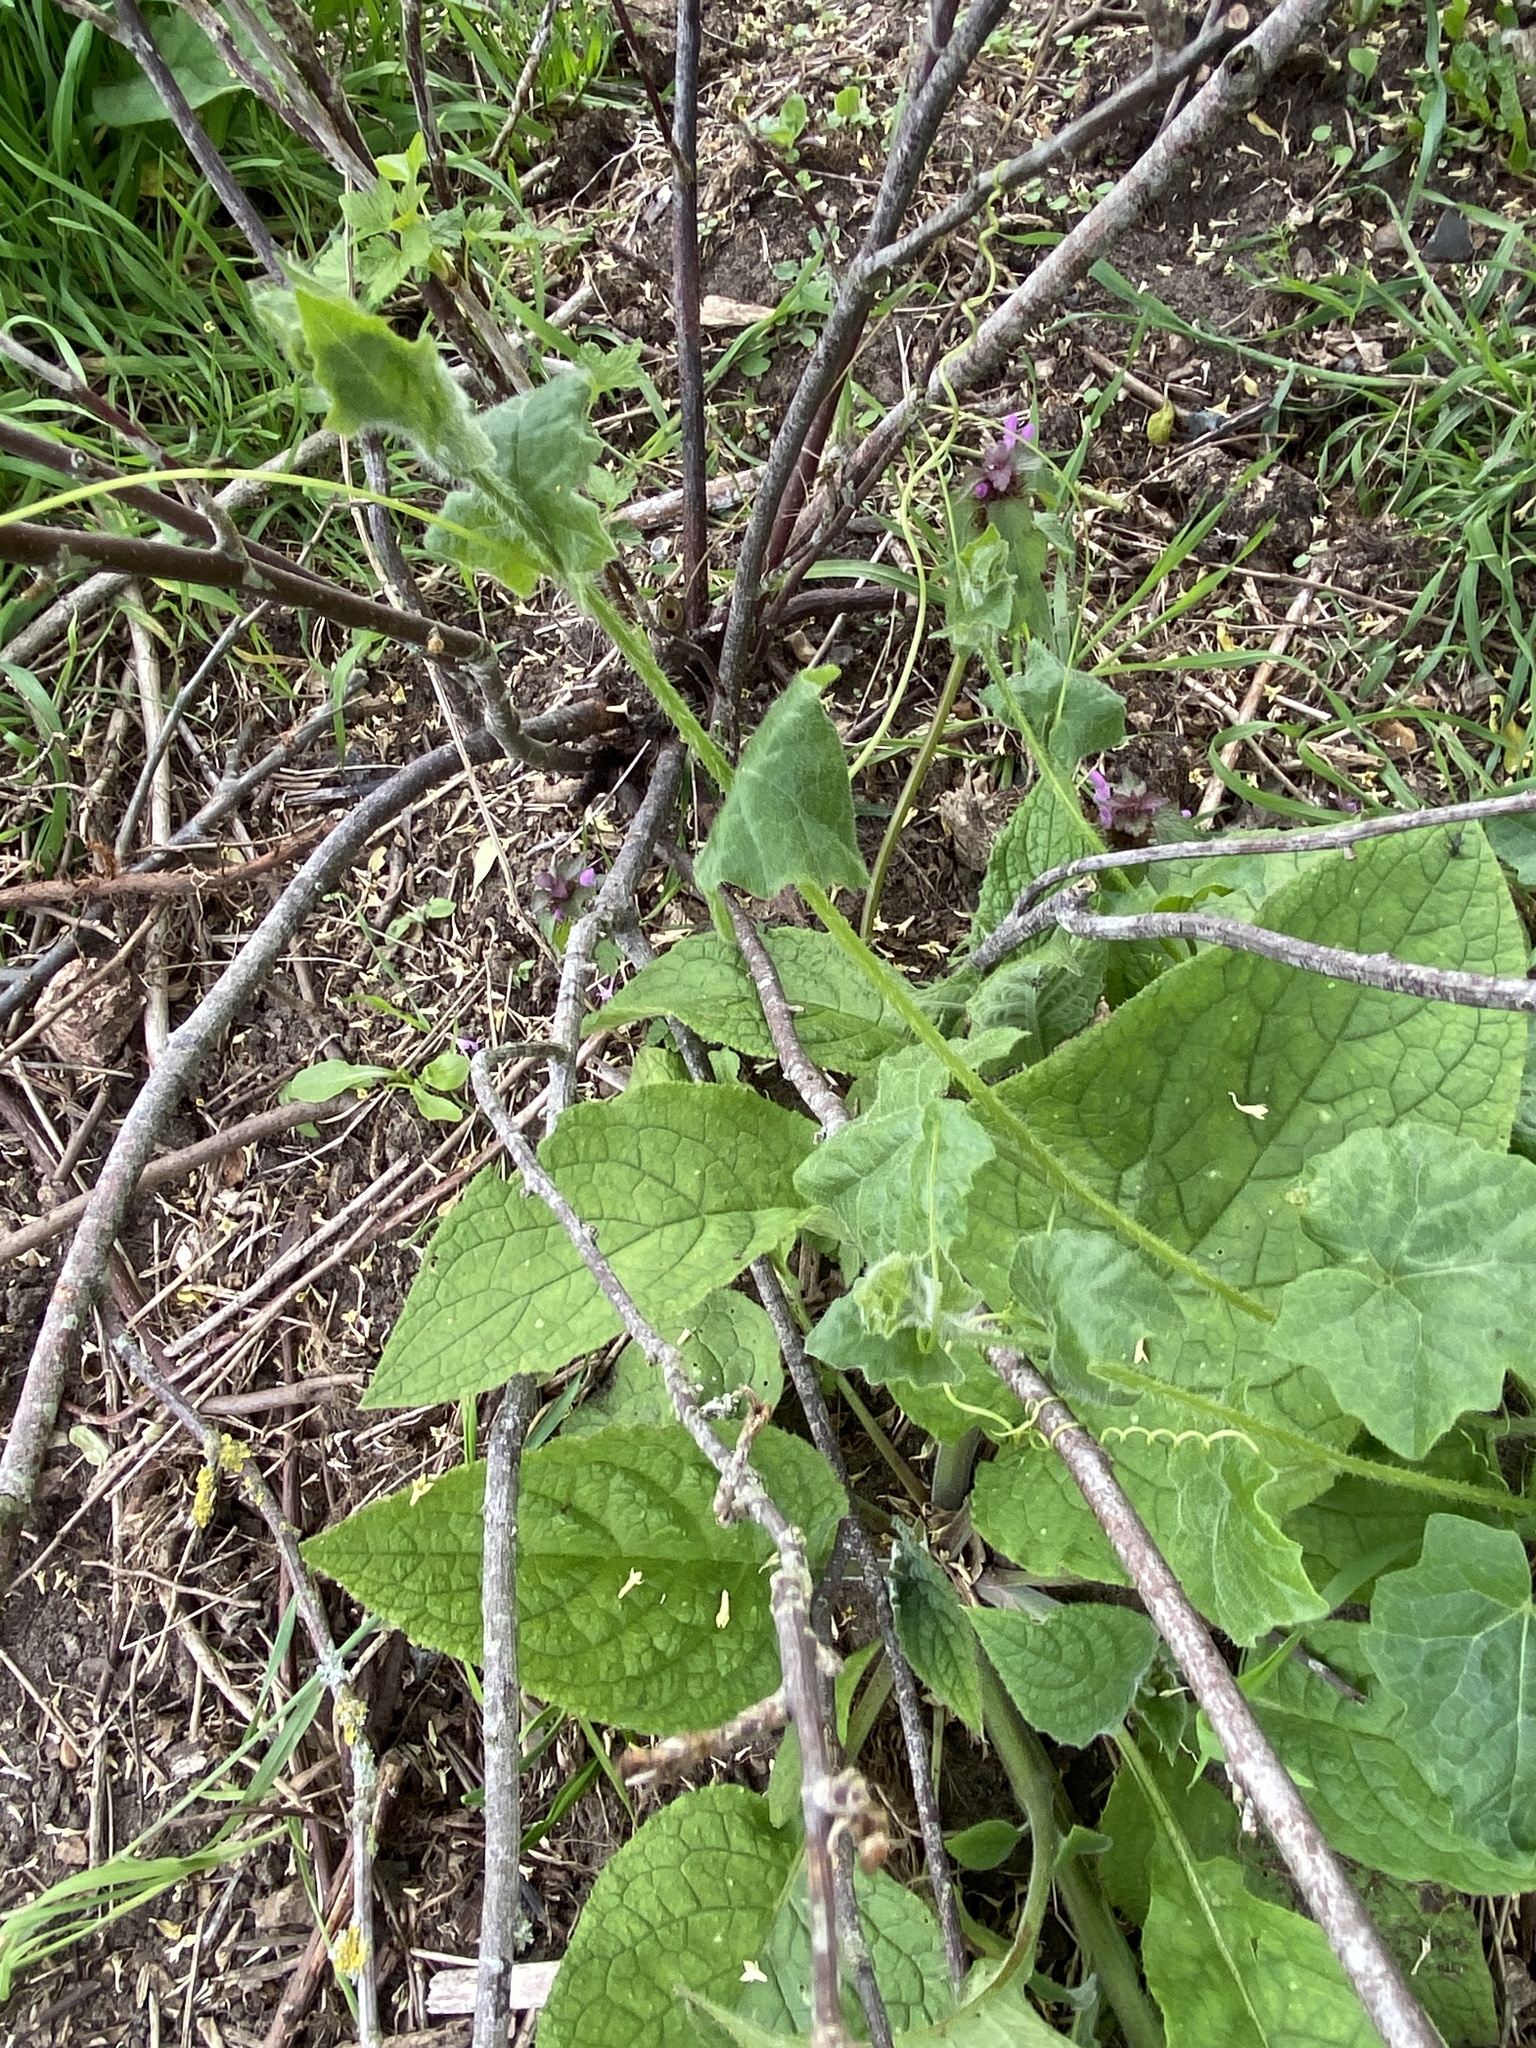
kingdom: Plantae
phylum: Tracheophyta
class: Magnoliopsida
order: Cucurbitales
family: Cucurbitaceae
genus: Bryonia
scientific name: Bryonia cretica
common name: Cretan bryony
